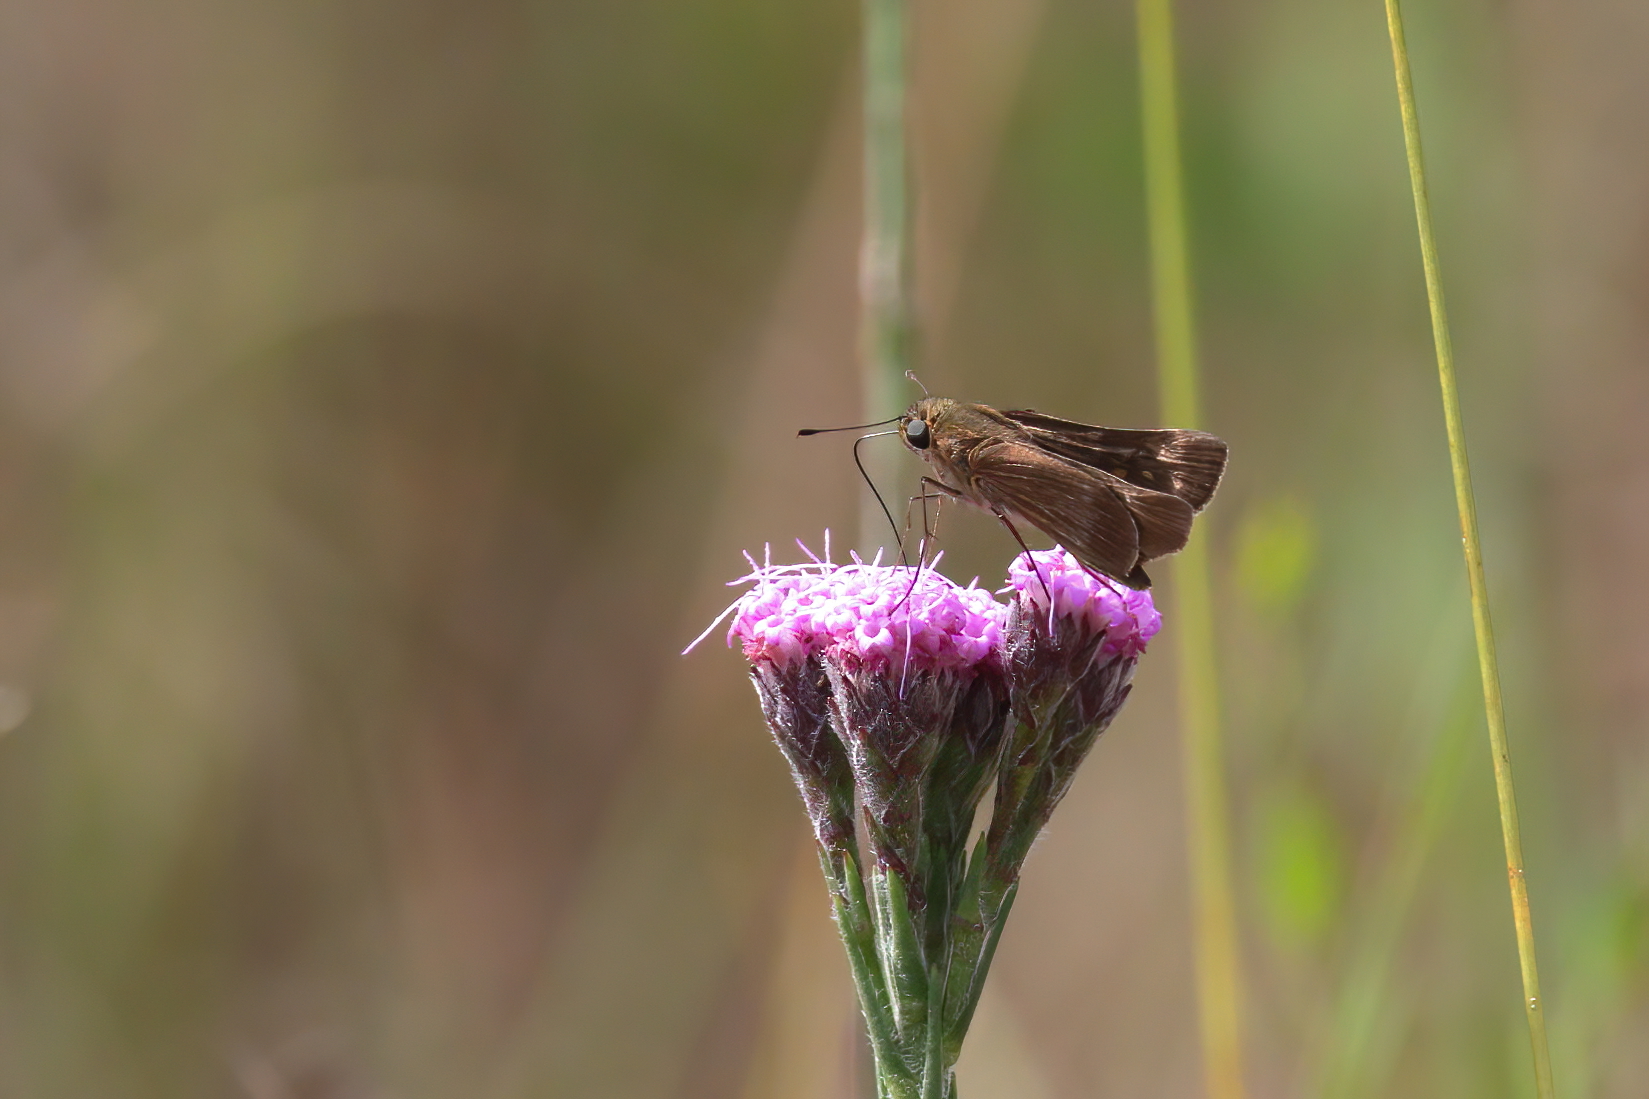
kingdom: Animalia
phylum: Arthropoda
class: Insecta
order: Lepidoptera
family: Hesperiidae
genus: Panoquina
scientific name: Panoquina ocola
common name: Ocola skipper
